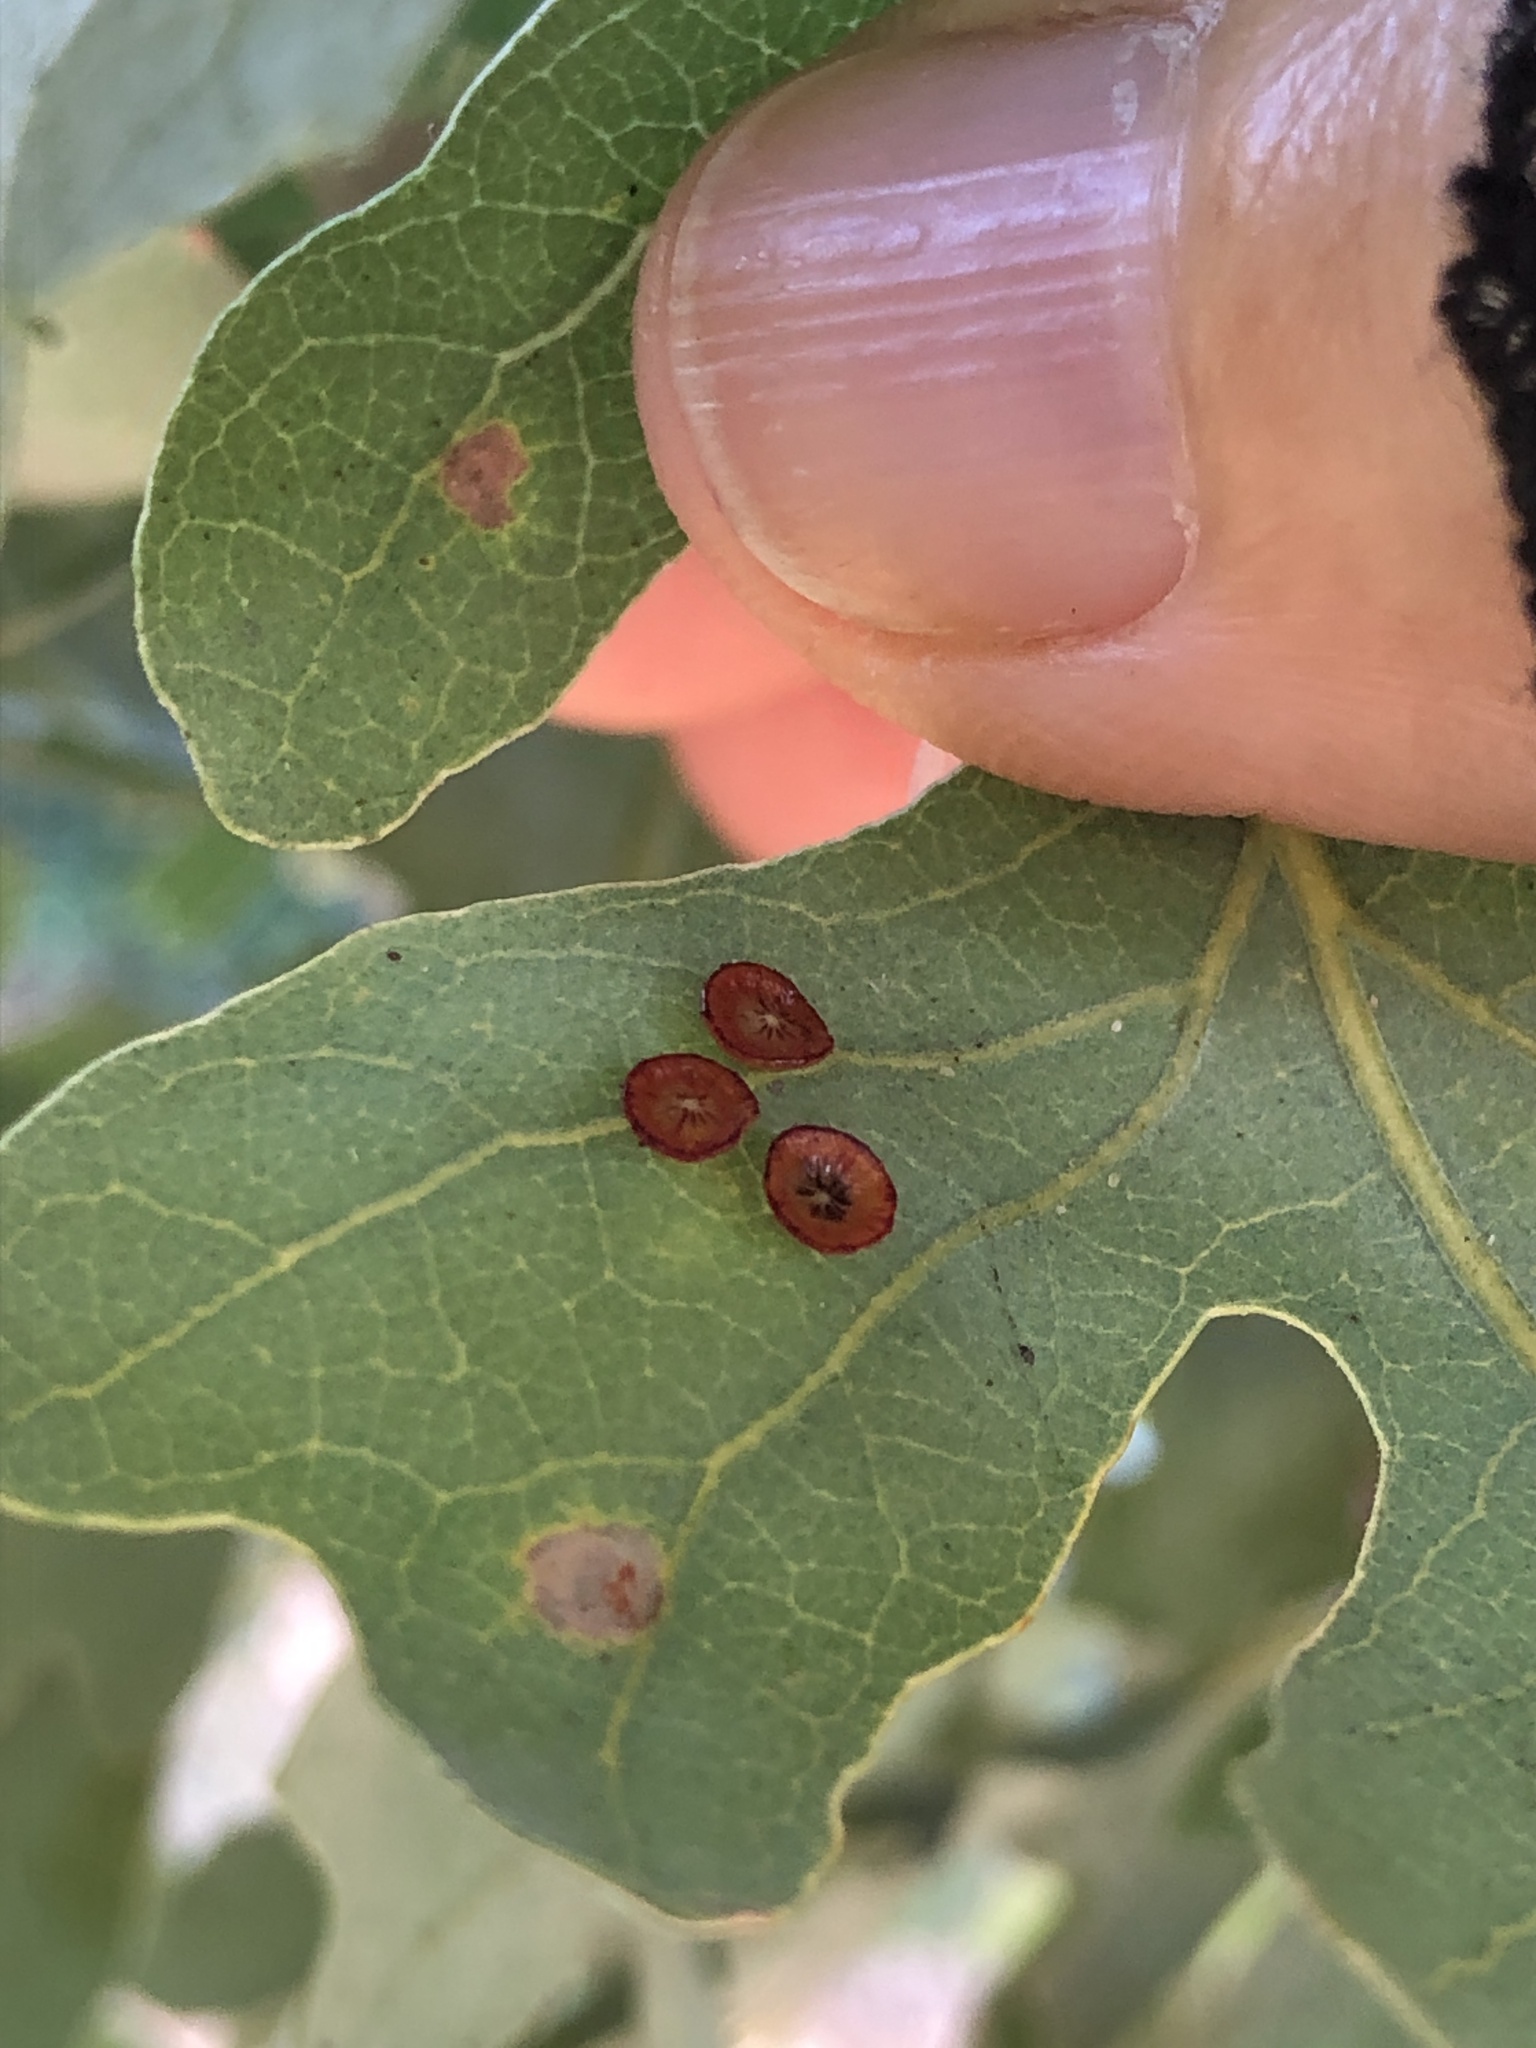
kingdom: Animalia
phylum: Arthropoda
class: Insecta
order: Hymenoptera
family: Cynipidae
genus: Andricus
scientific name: Andricus
